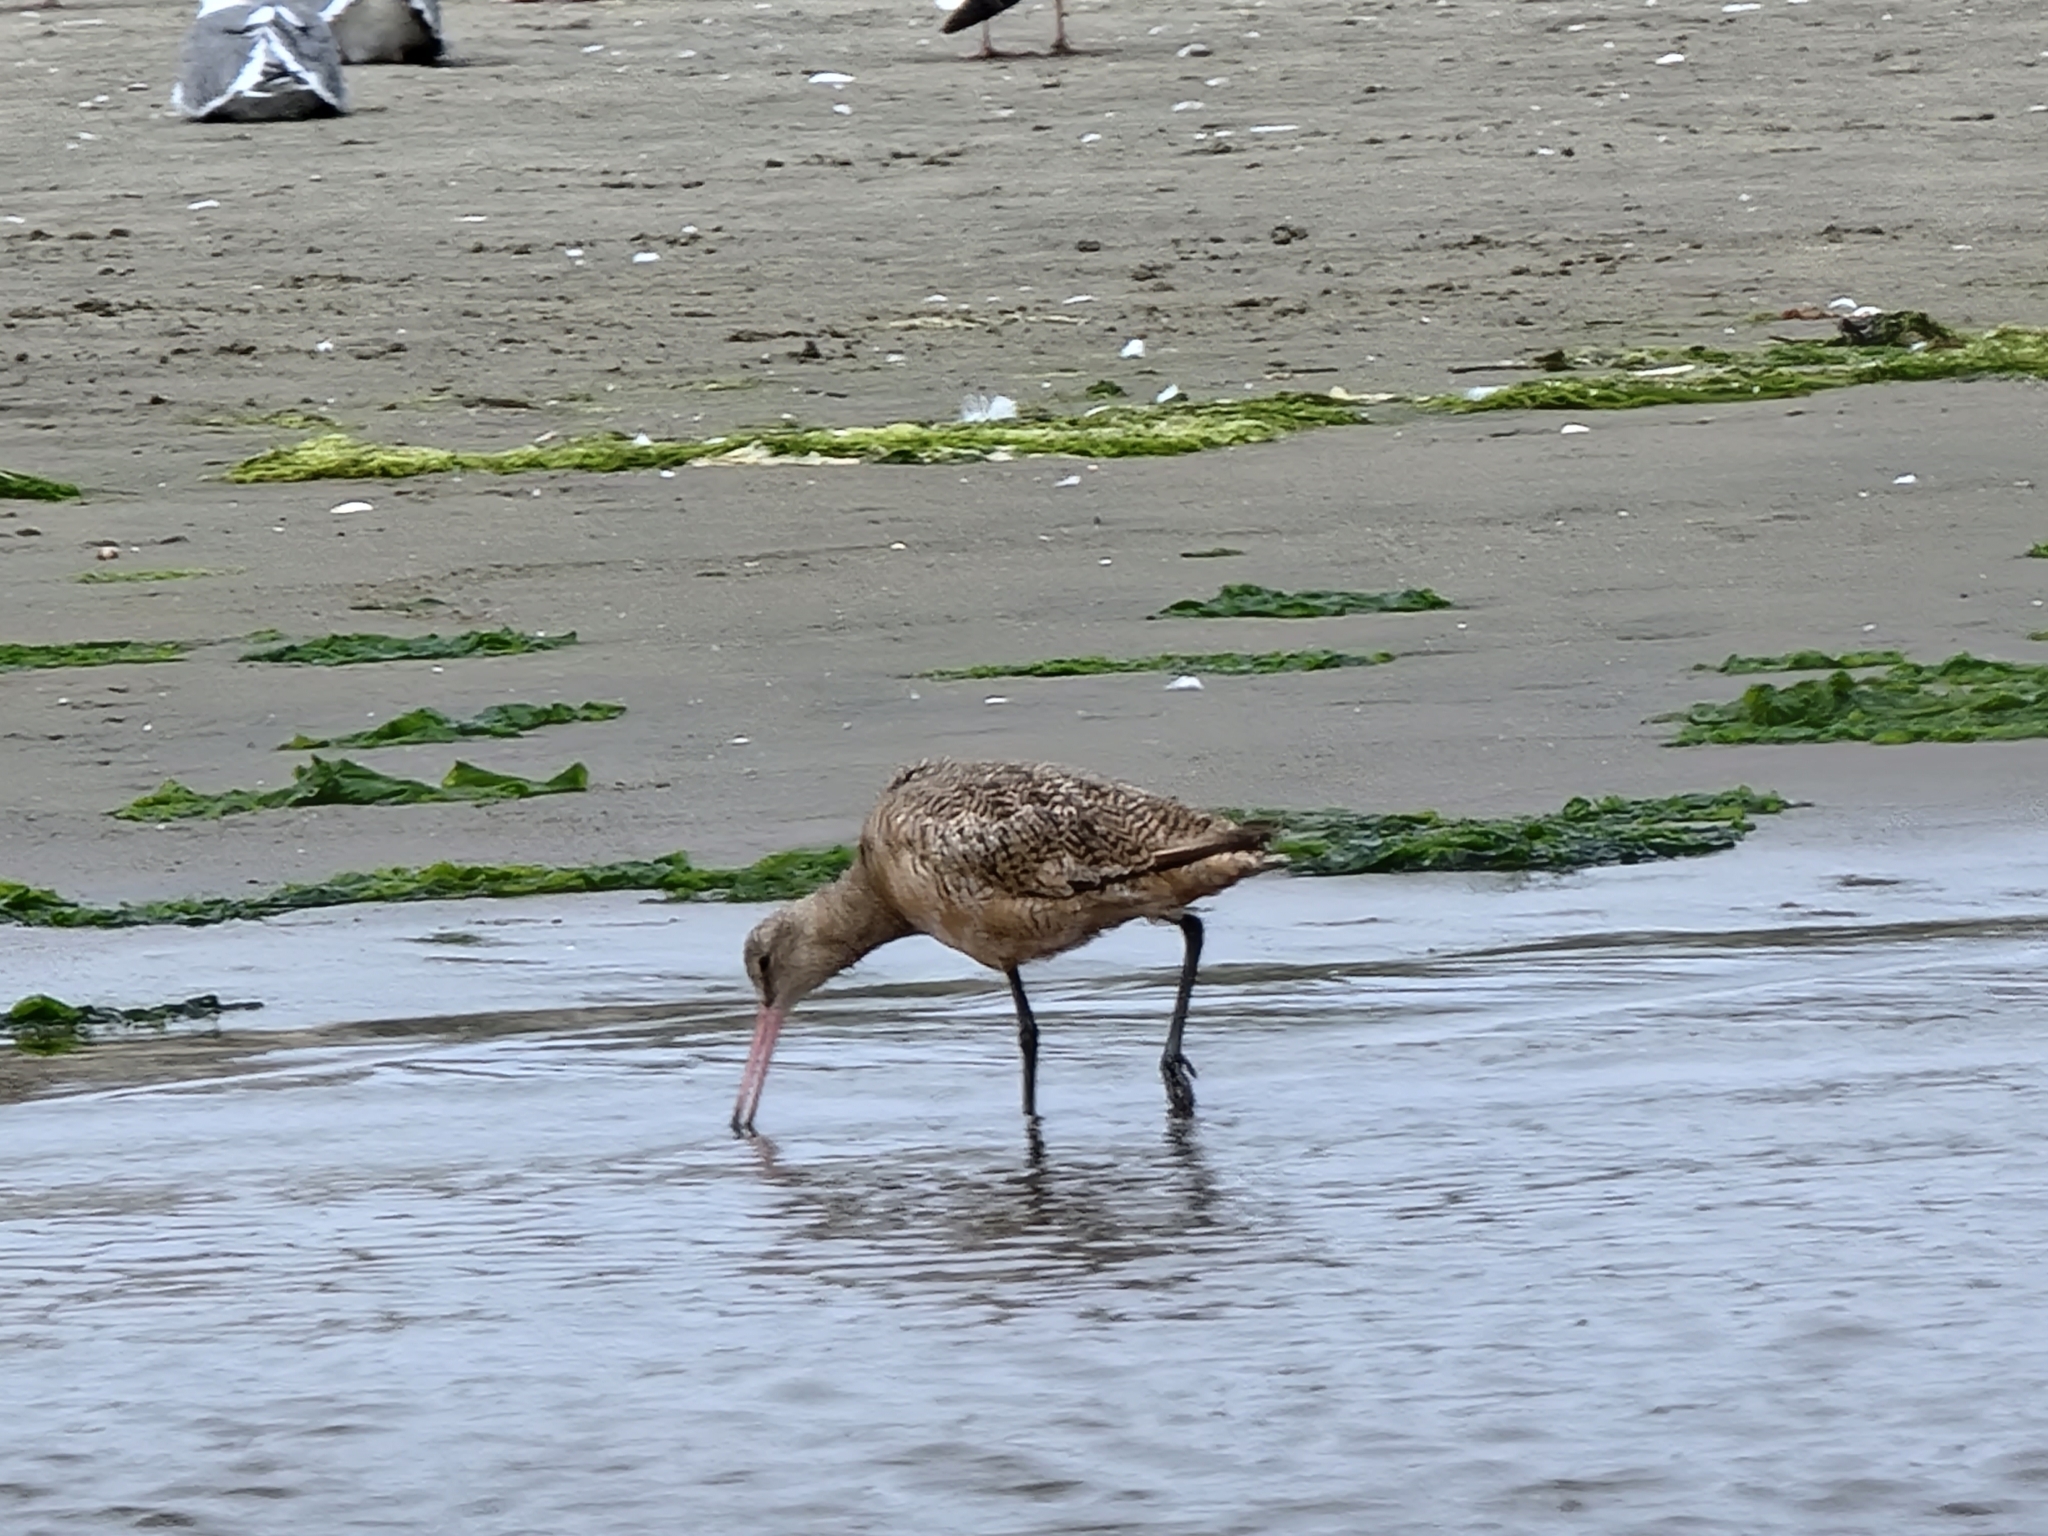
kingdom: Animalia
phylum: Chordata
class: Aves
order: Charadriiformes
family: Scolopacidae
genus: Limosa
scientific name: Limosa fedoa
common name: Marbled godwit
